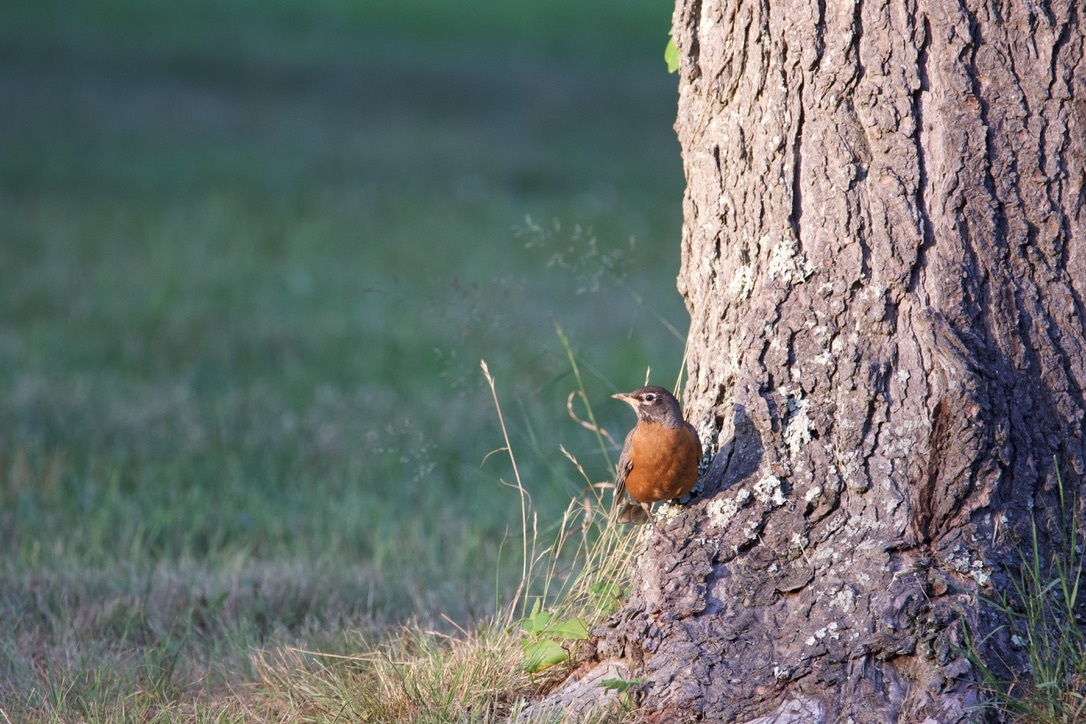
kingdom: Animalia
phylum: Chordata
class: Aves
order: Passeriformes
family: Turdidae
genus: Turdus
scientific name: Turdus migratorius
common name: American robin
